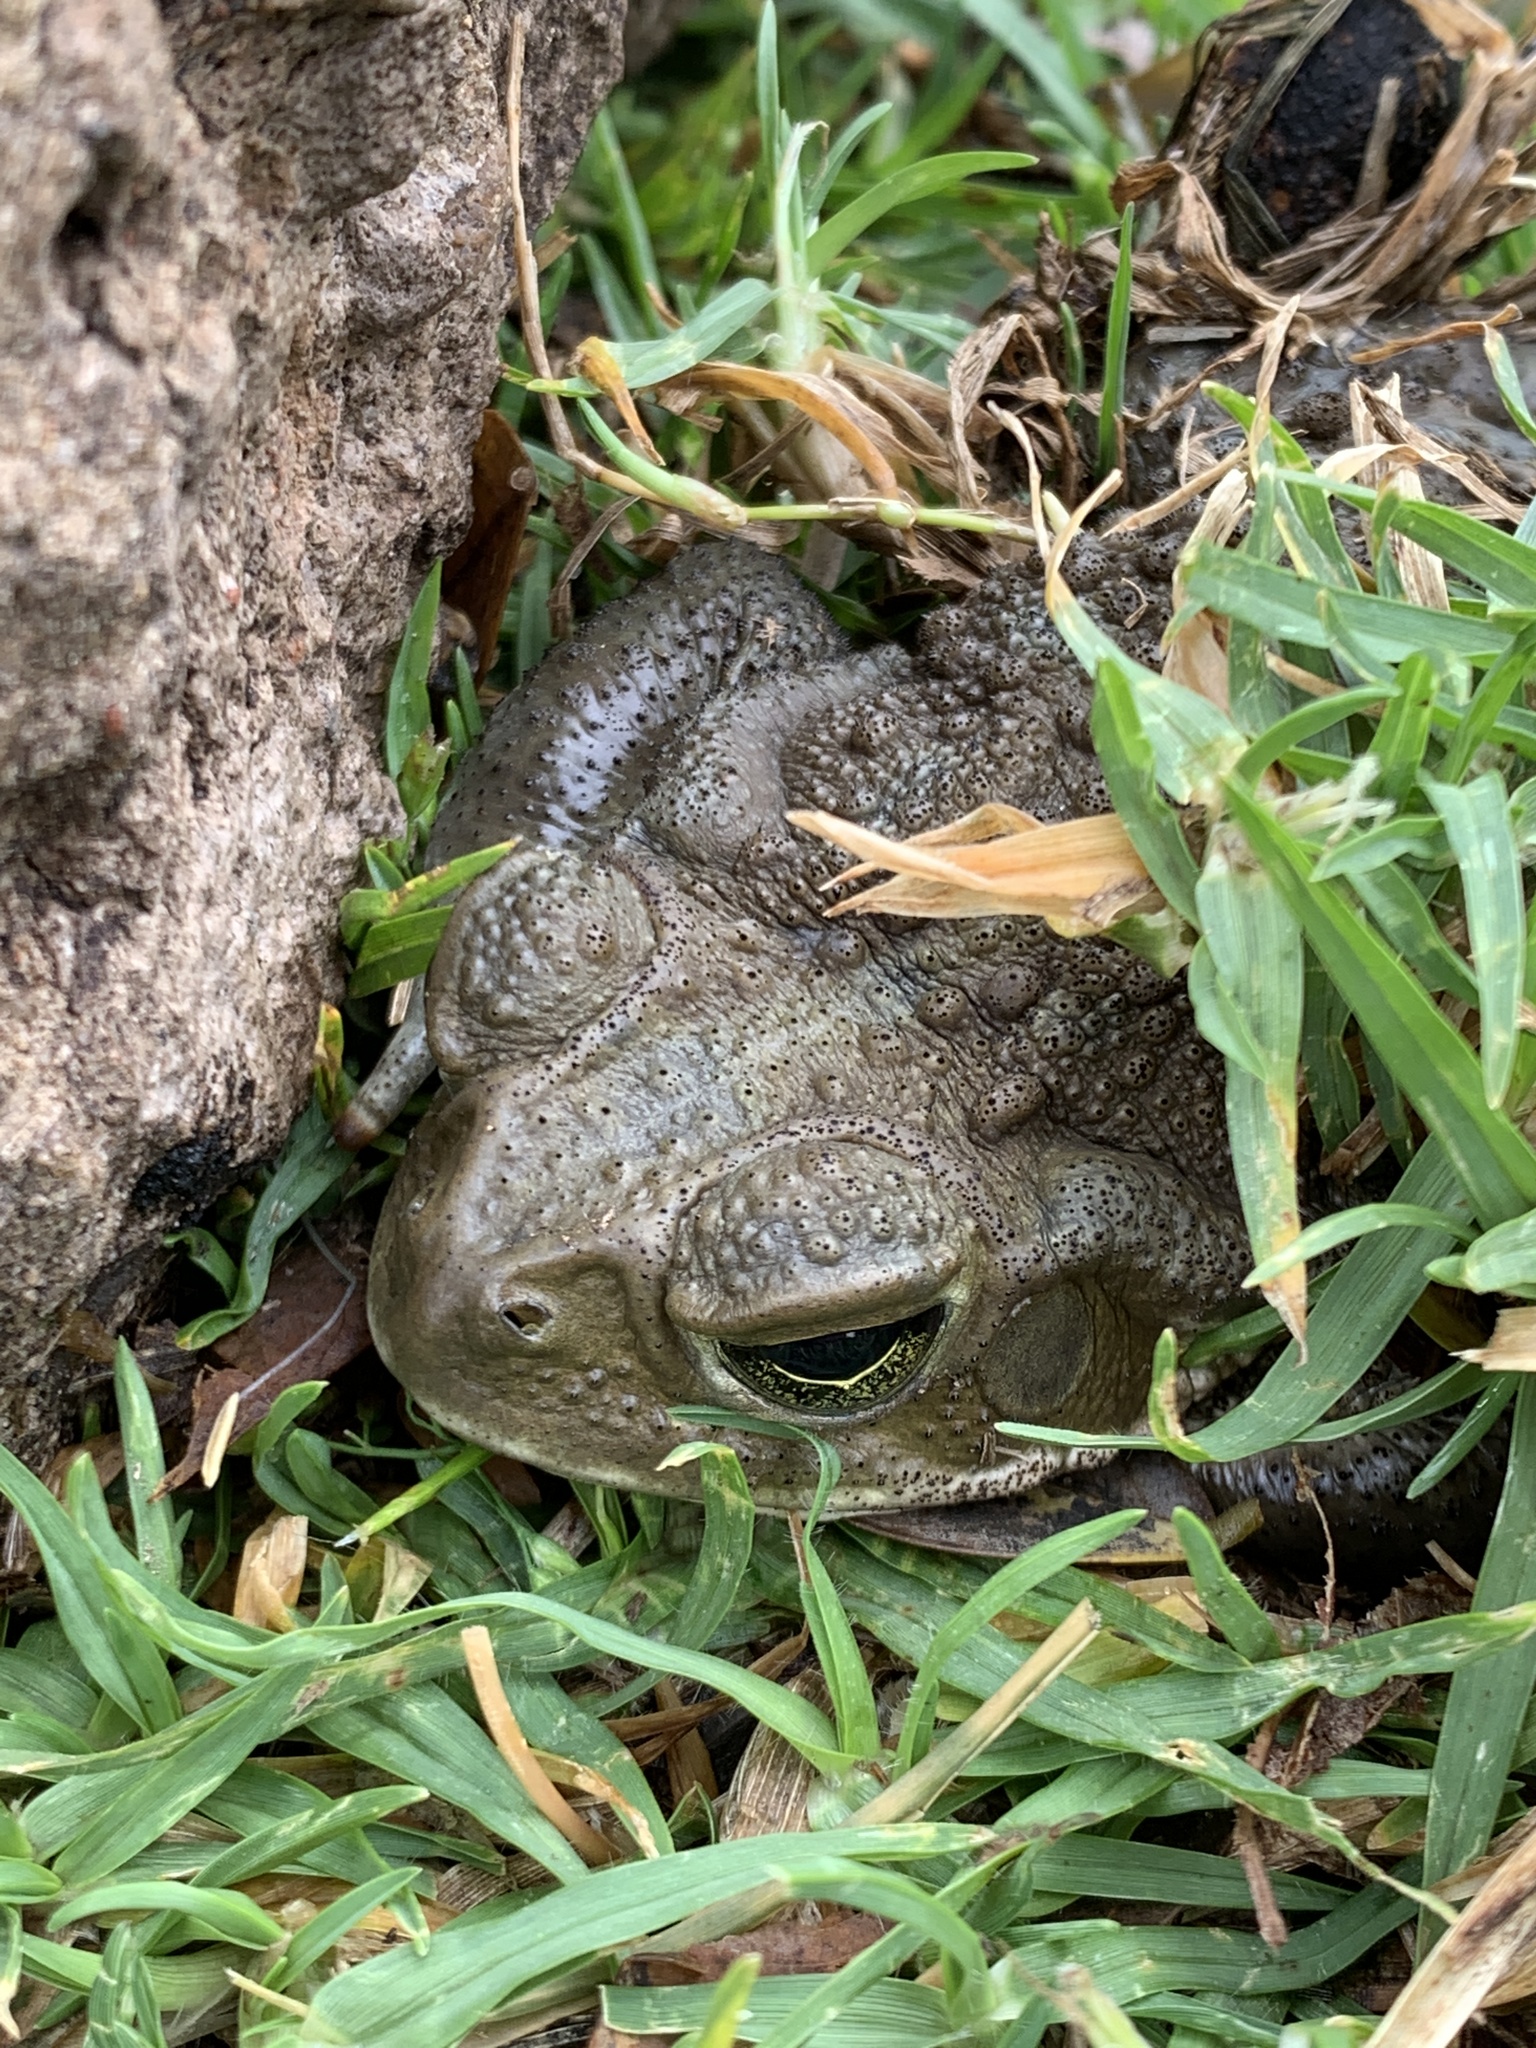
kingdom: Animalia
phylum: Chordata
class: Amphibia
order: Anura
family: Bufonidae
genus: Rhinella
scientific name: Rhinella arenarum
